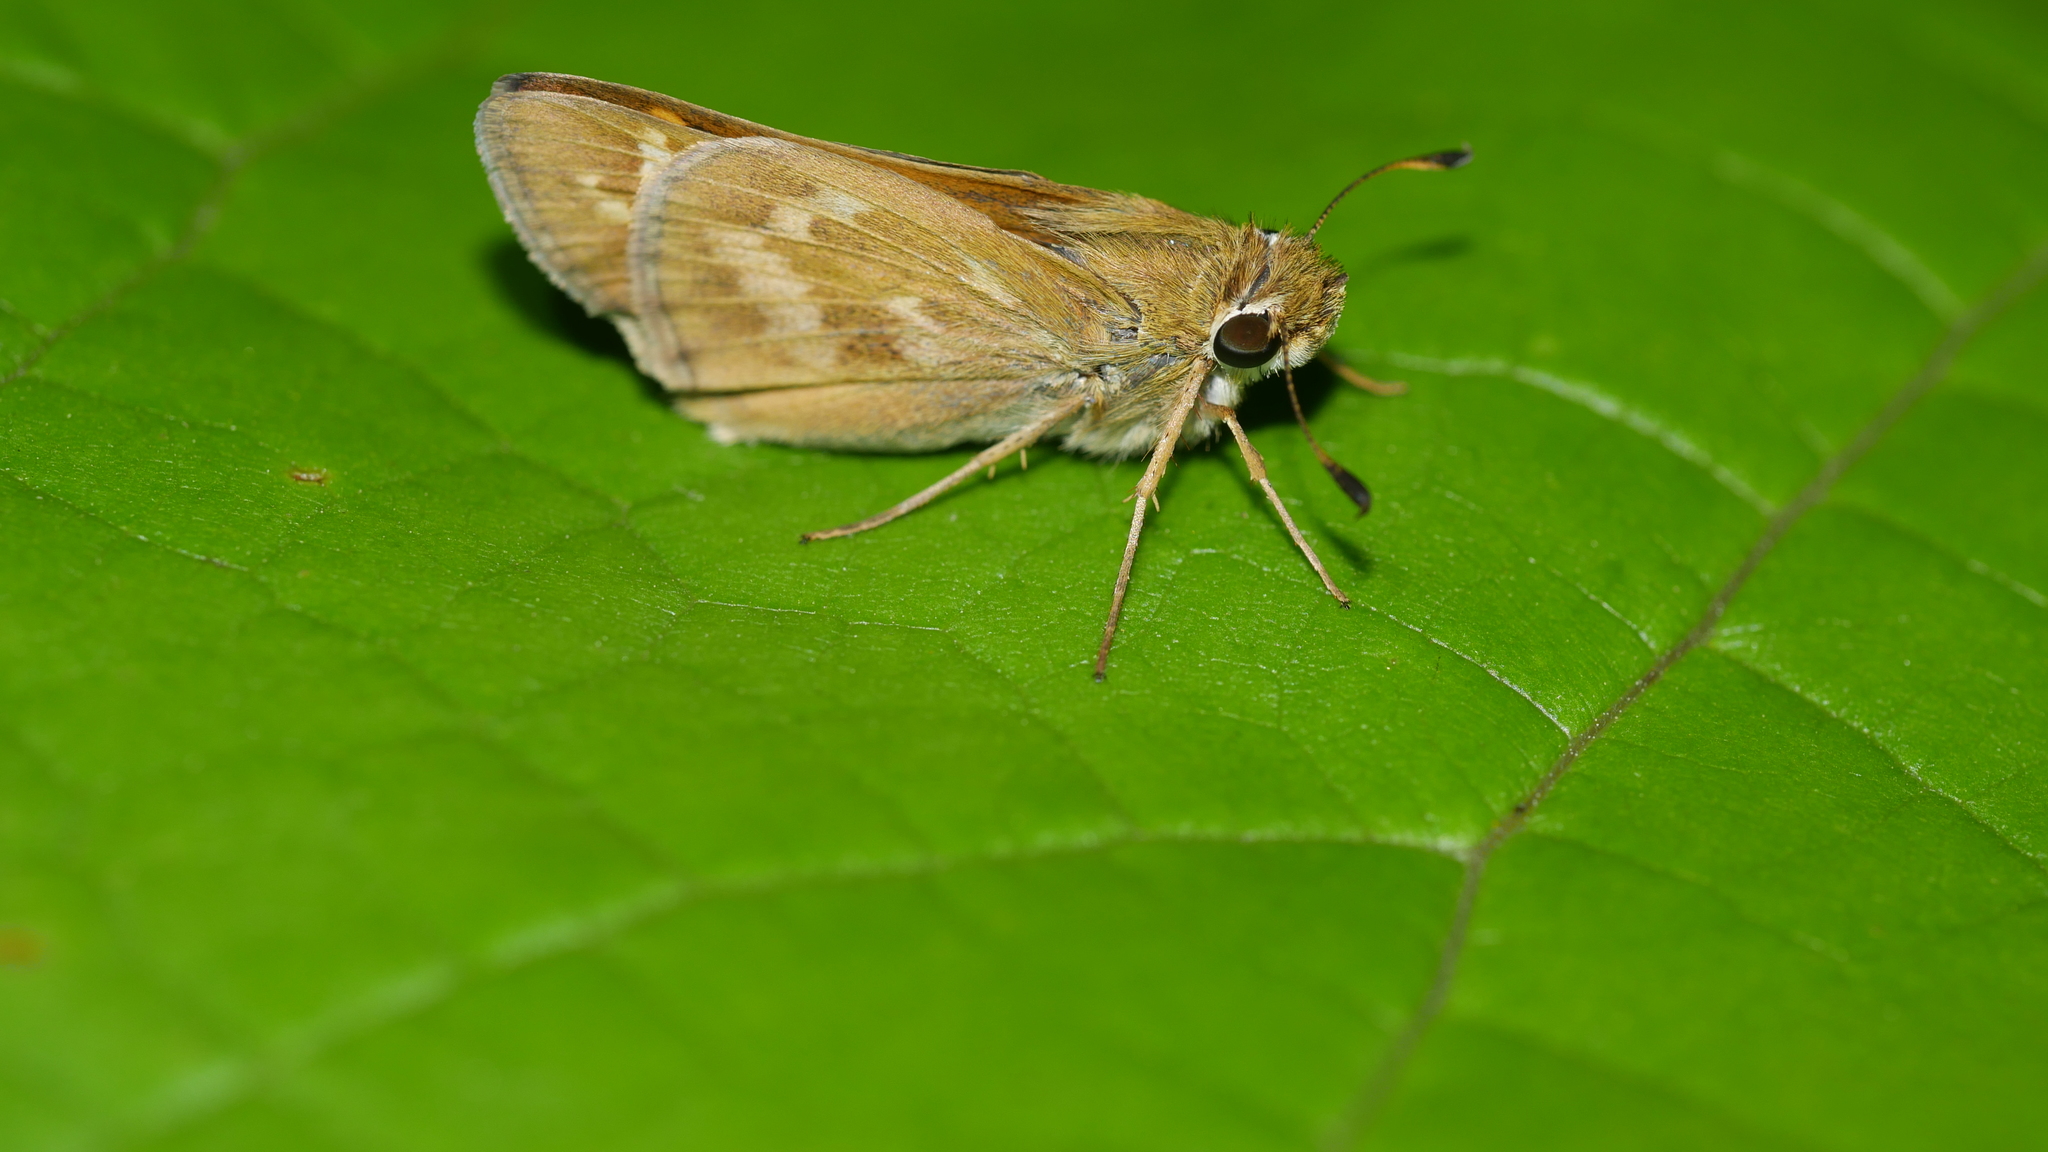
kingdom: Animalia
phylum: Arthropoda
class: Insecta
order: Lepidoptera
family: Hesperiidae
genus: Atalopedes
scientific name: Atalopedes
